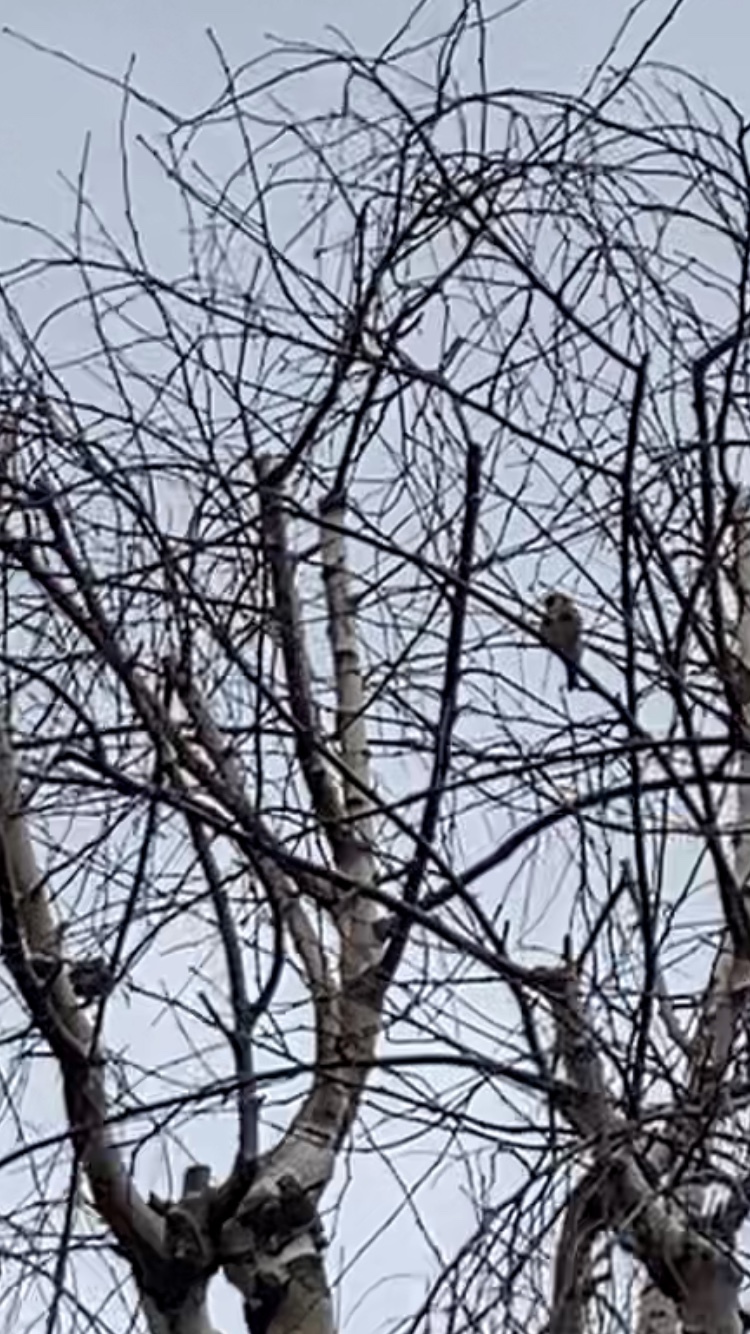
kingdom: Animalia
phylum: Chordata
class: Aves
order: Passeriformes
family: Fringillidae
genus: Carduelis
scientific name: Carduelis carduelis
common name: European goldfinch
